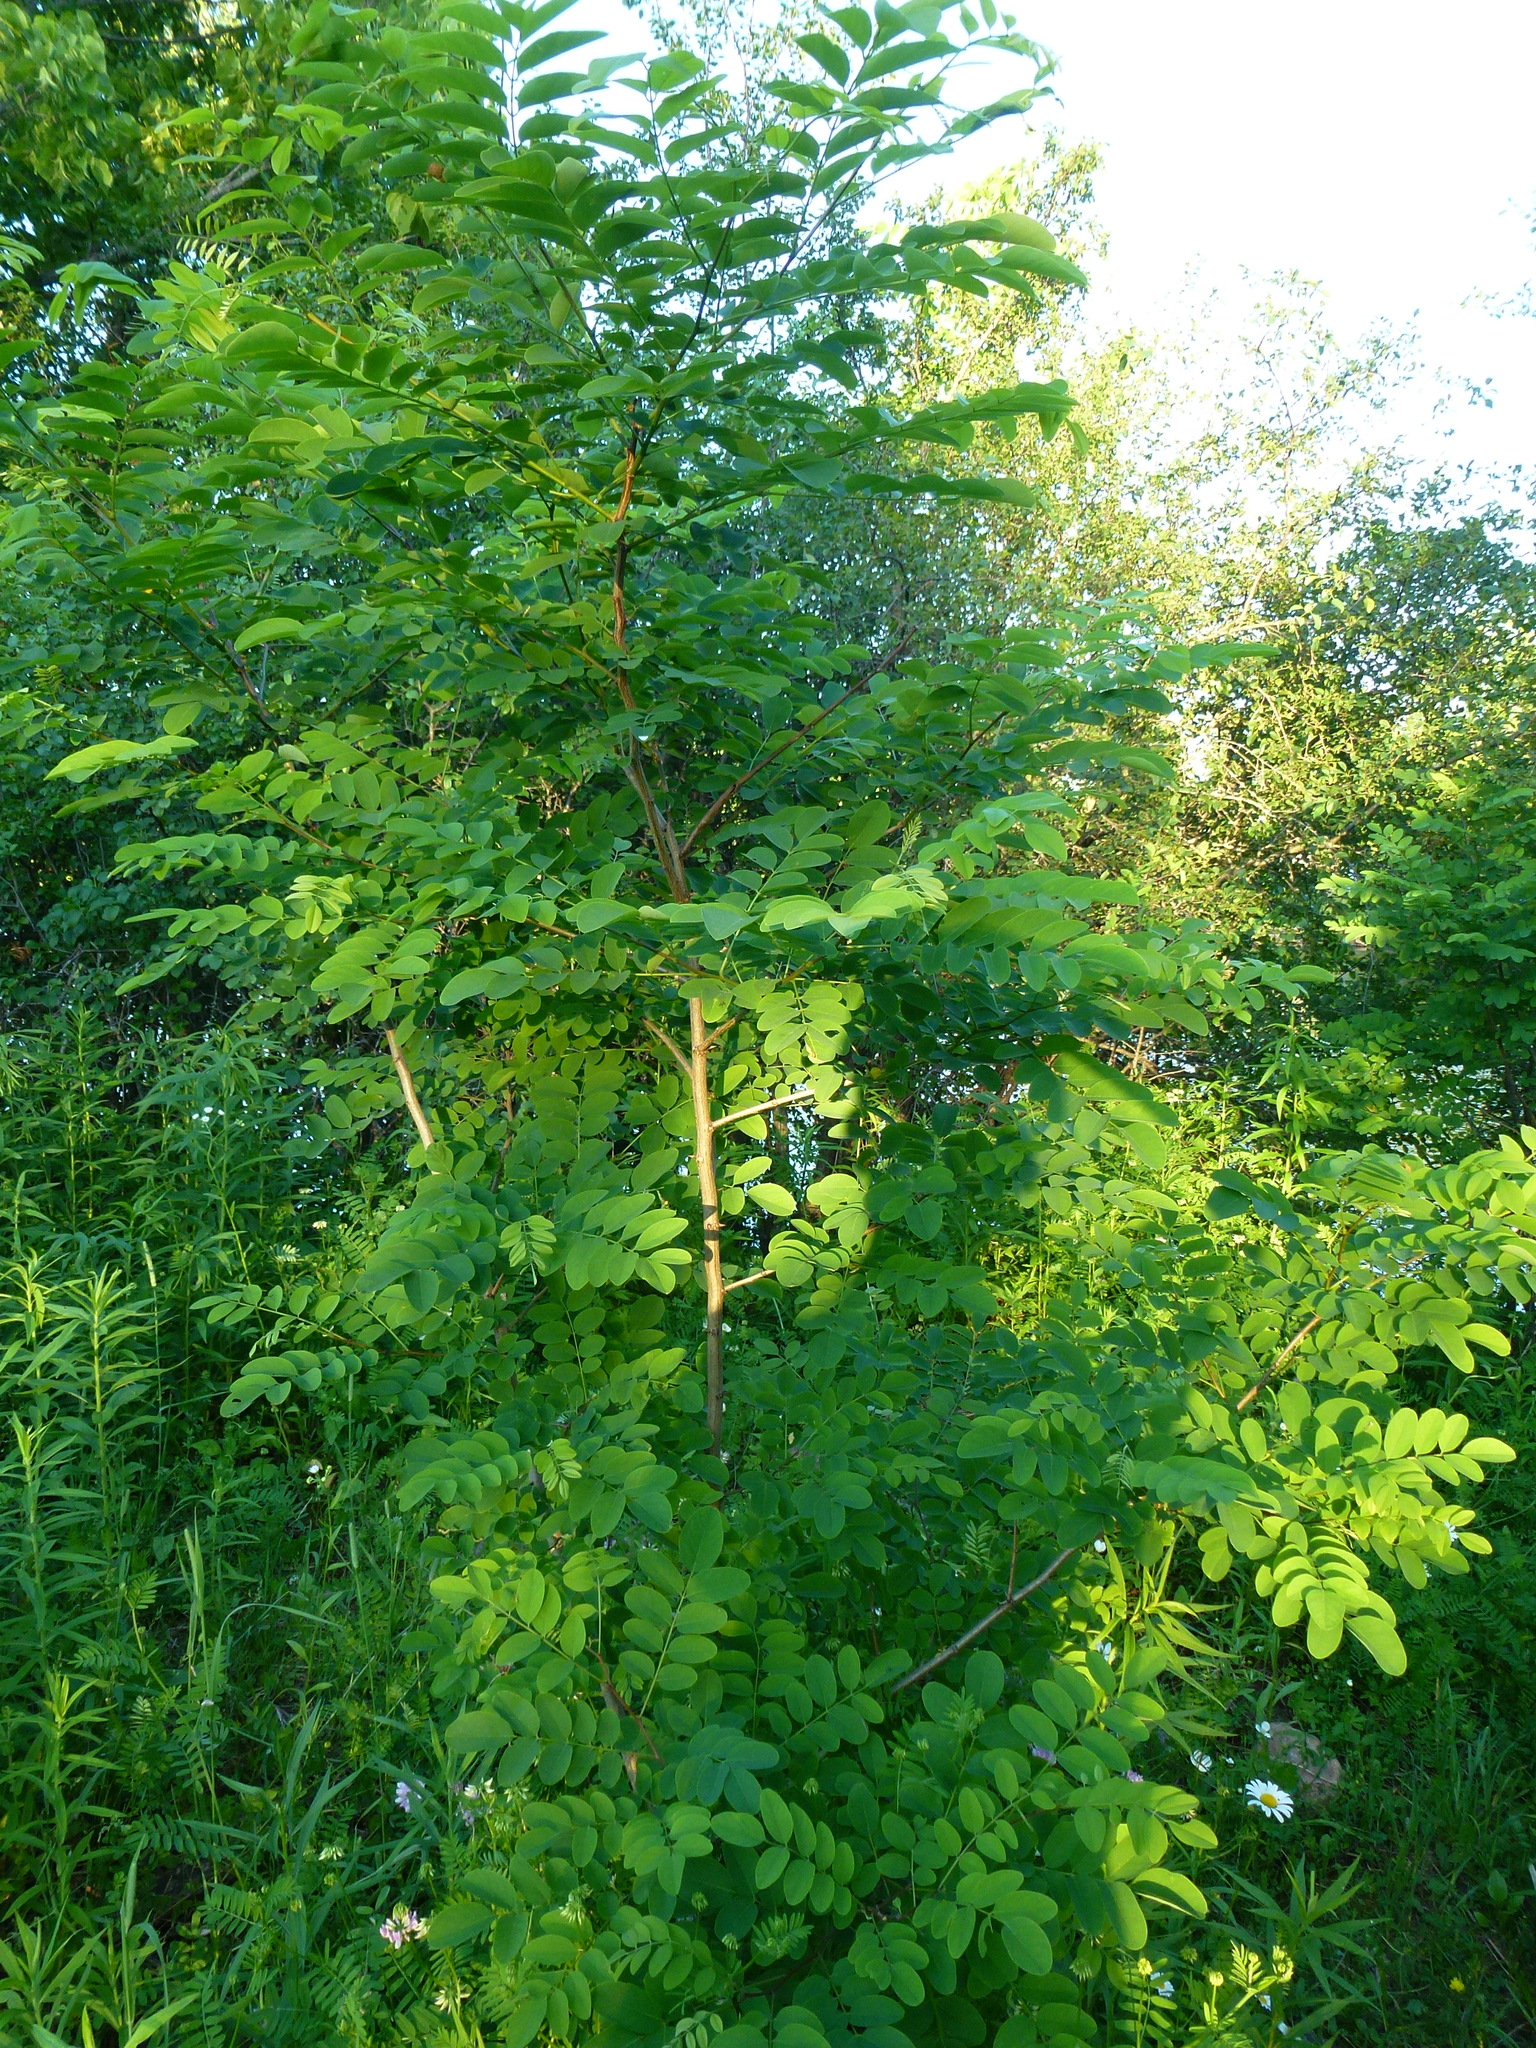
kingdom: Plantae
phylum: Tracheophyta
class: Magnoliopsida
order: Fabales
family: Fabaceae
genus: Robinia
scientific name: Robinia pseudoacacia
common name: Black locust
